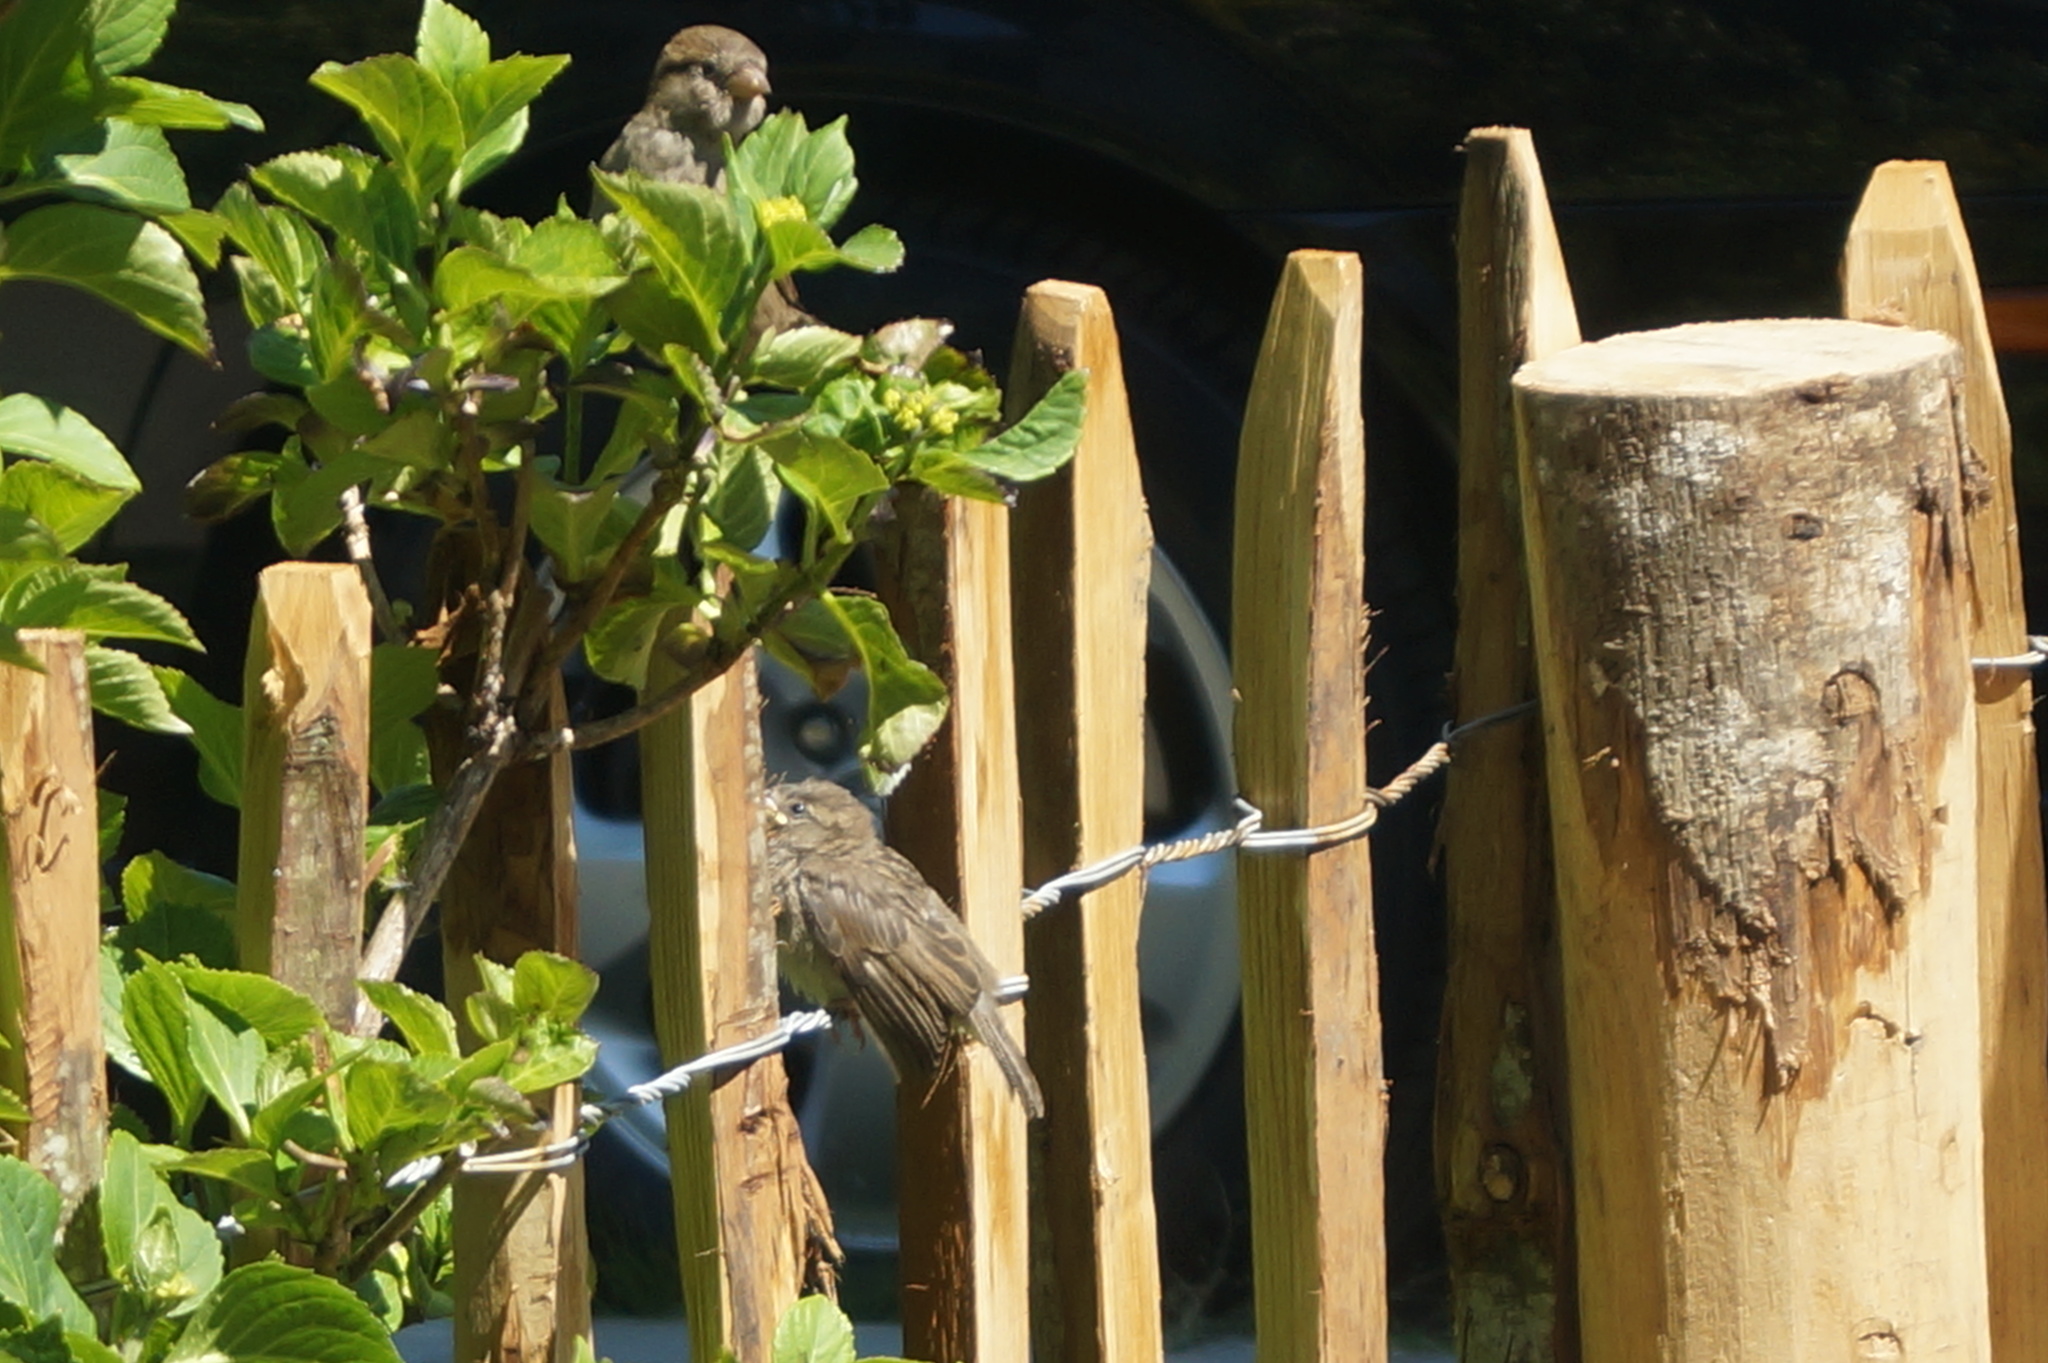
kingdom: Animalia
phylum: Chordata
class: Aves
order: Passeriformes
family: Passeridae
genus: Passer
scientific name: Passer domesticus
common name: House sparrow
